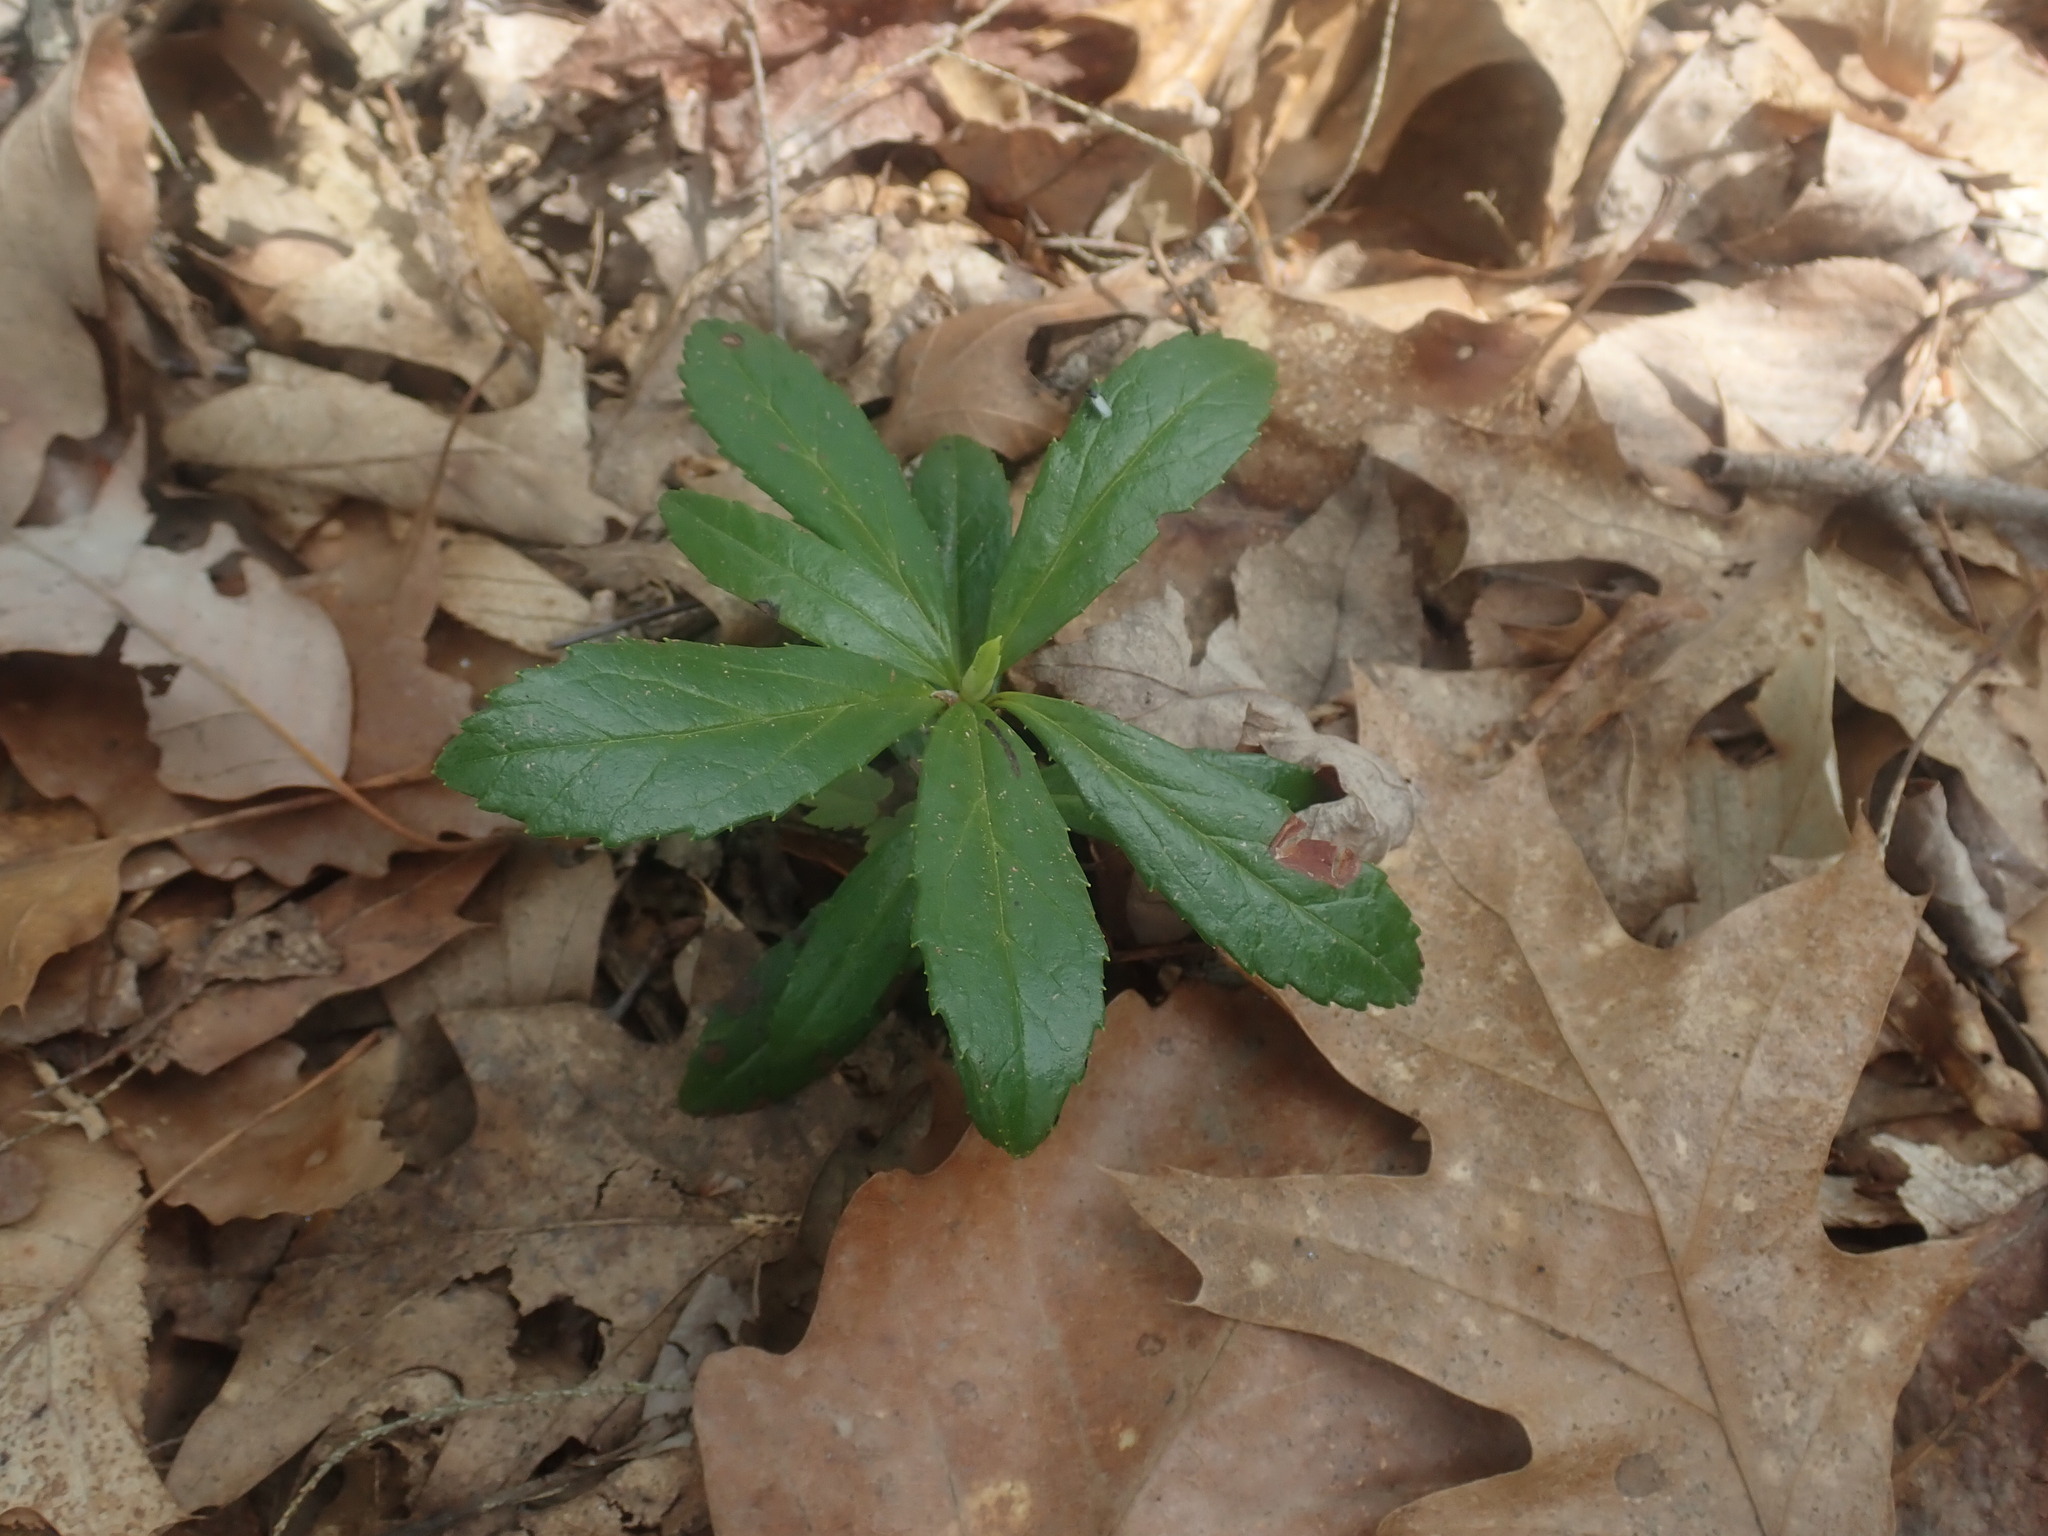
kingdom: Plantae
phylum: Tracheophyta
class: Magnoliopsida
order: Ericales
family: Ericaceae
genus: Chimaphila
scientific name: Chimaphila umbellata
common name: Pipsissewa
